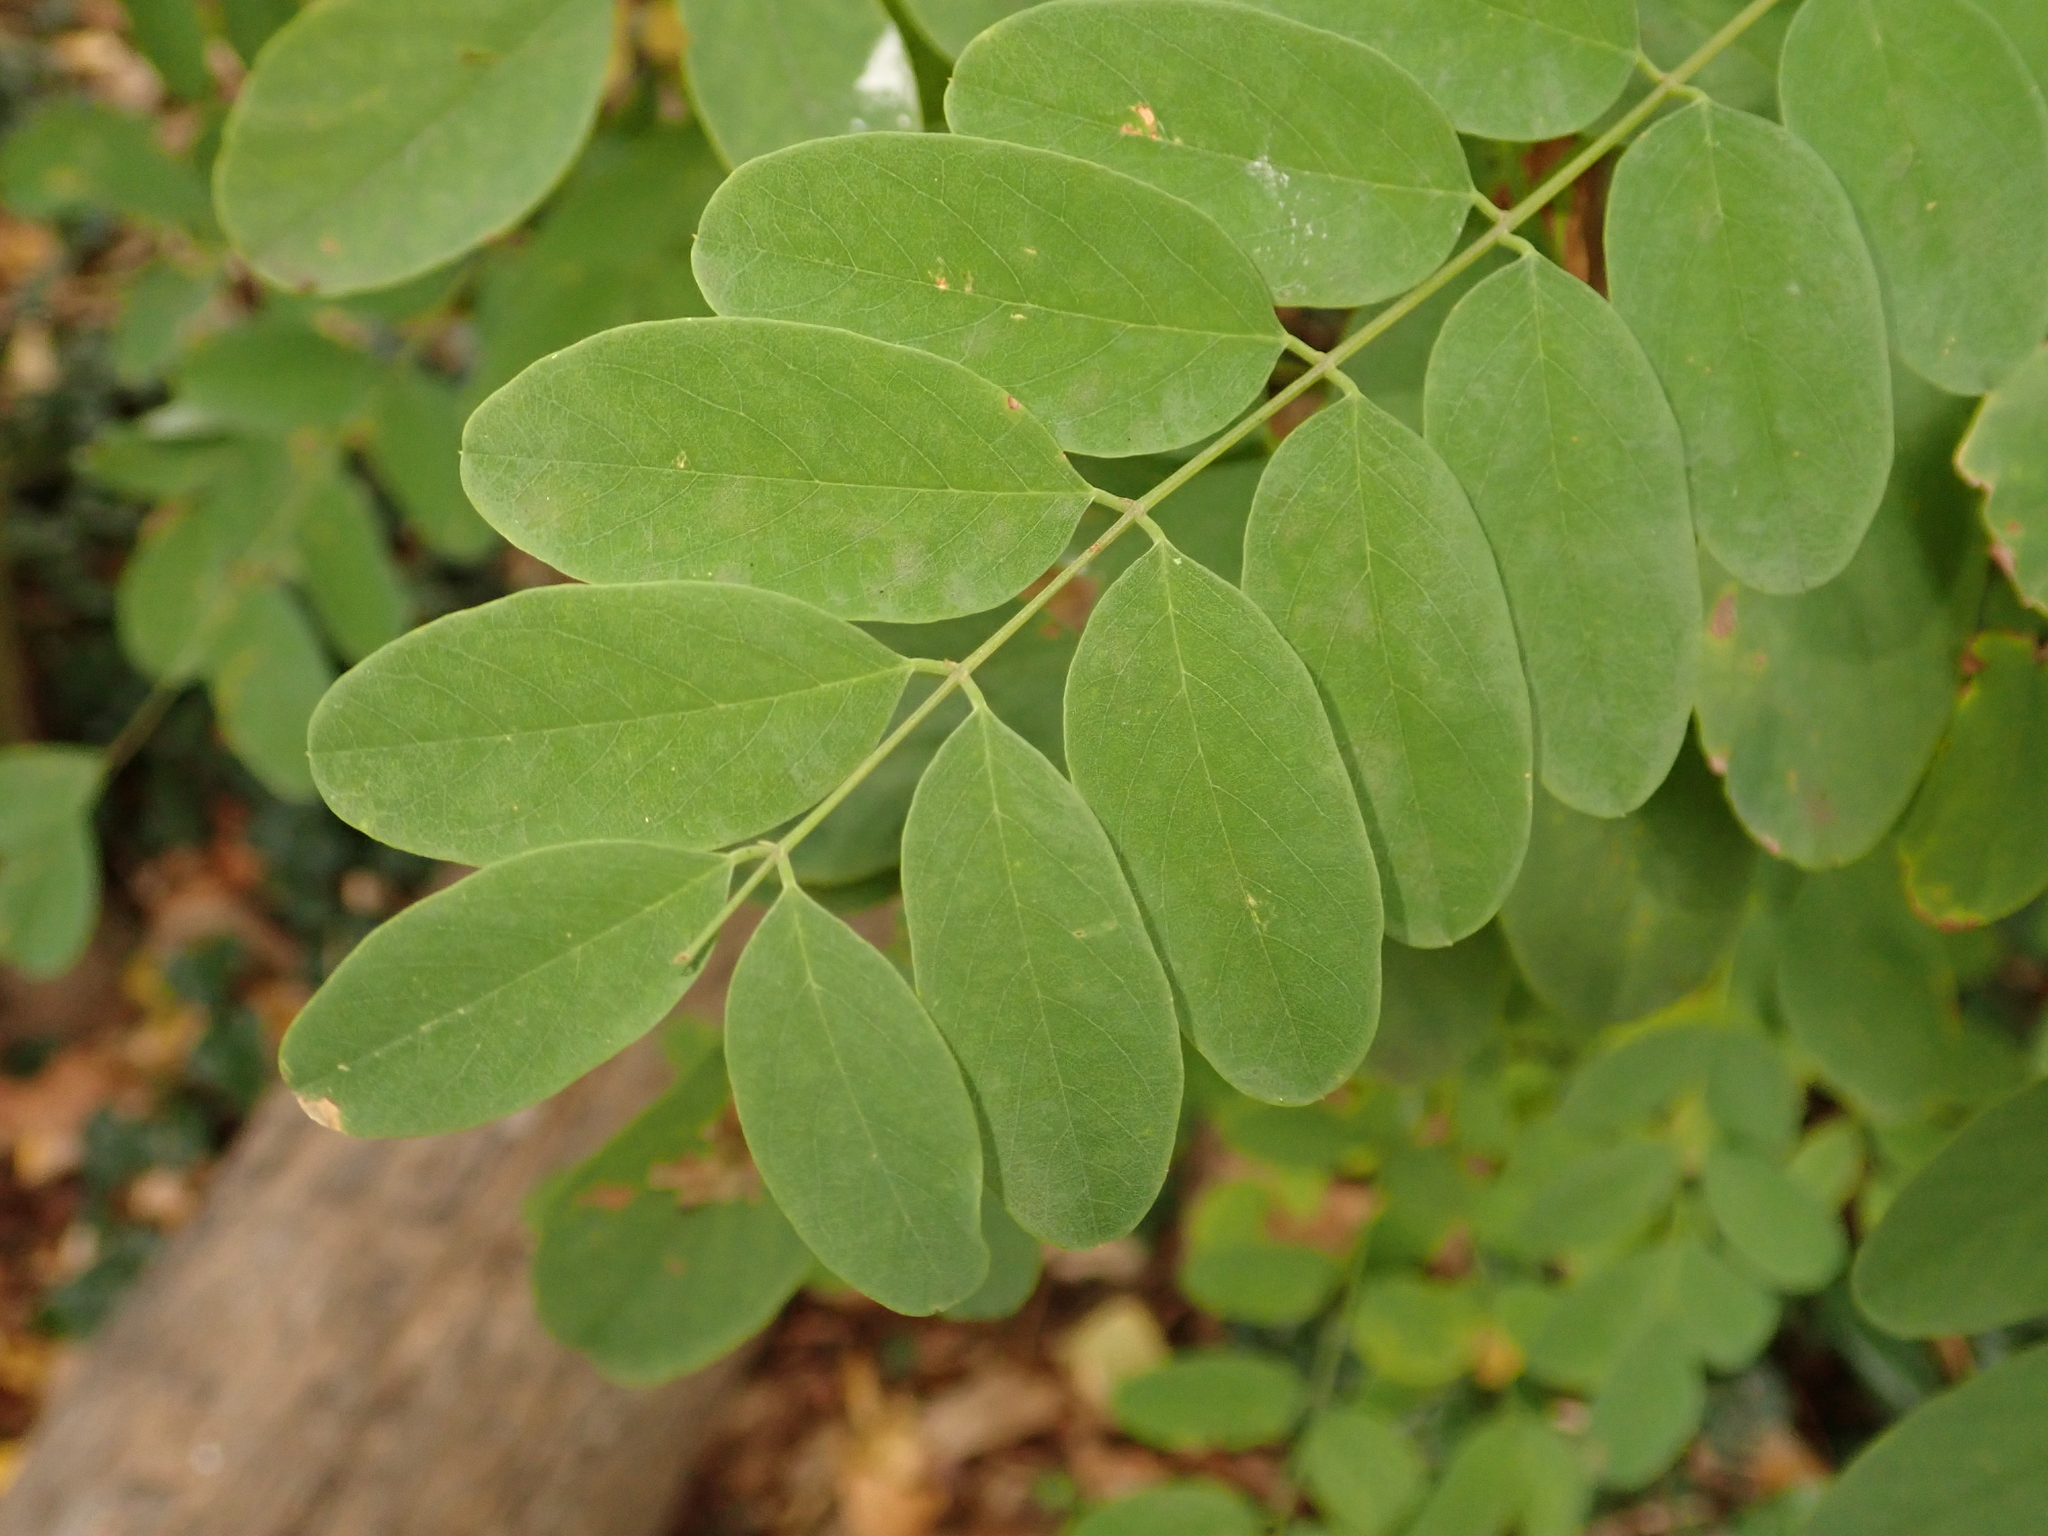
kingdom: Plantae
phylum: Tracheophyta
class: Magnoliopsida
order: Fabales
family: Fabaceae
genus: Robinia
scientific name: Robinia pseudoacacia
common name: Black locust
